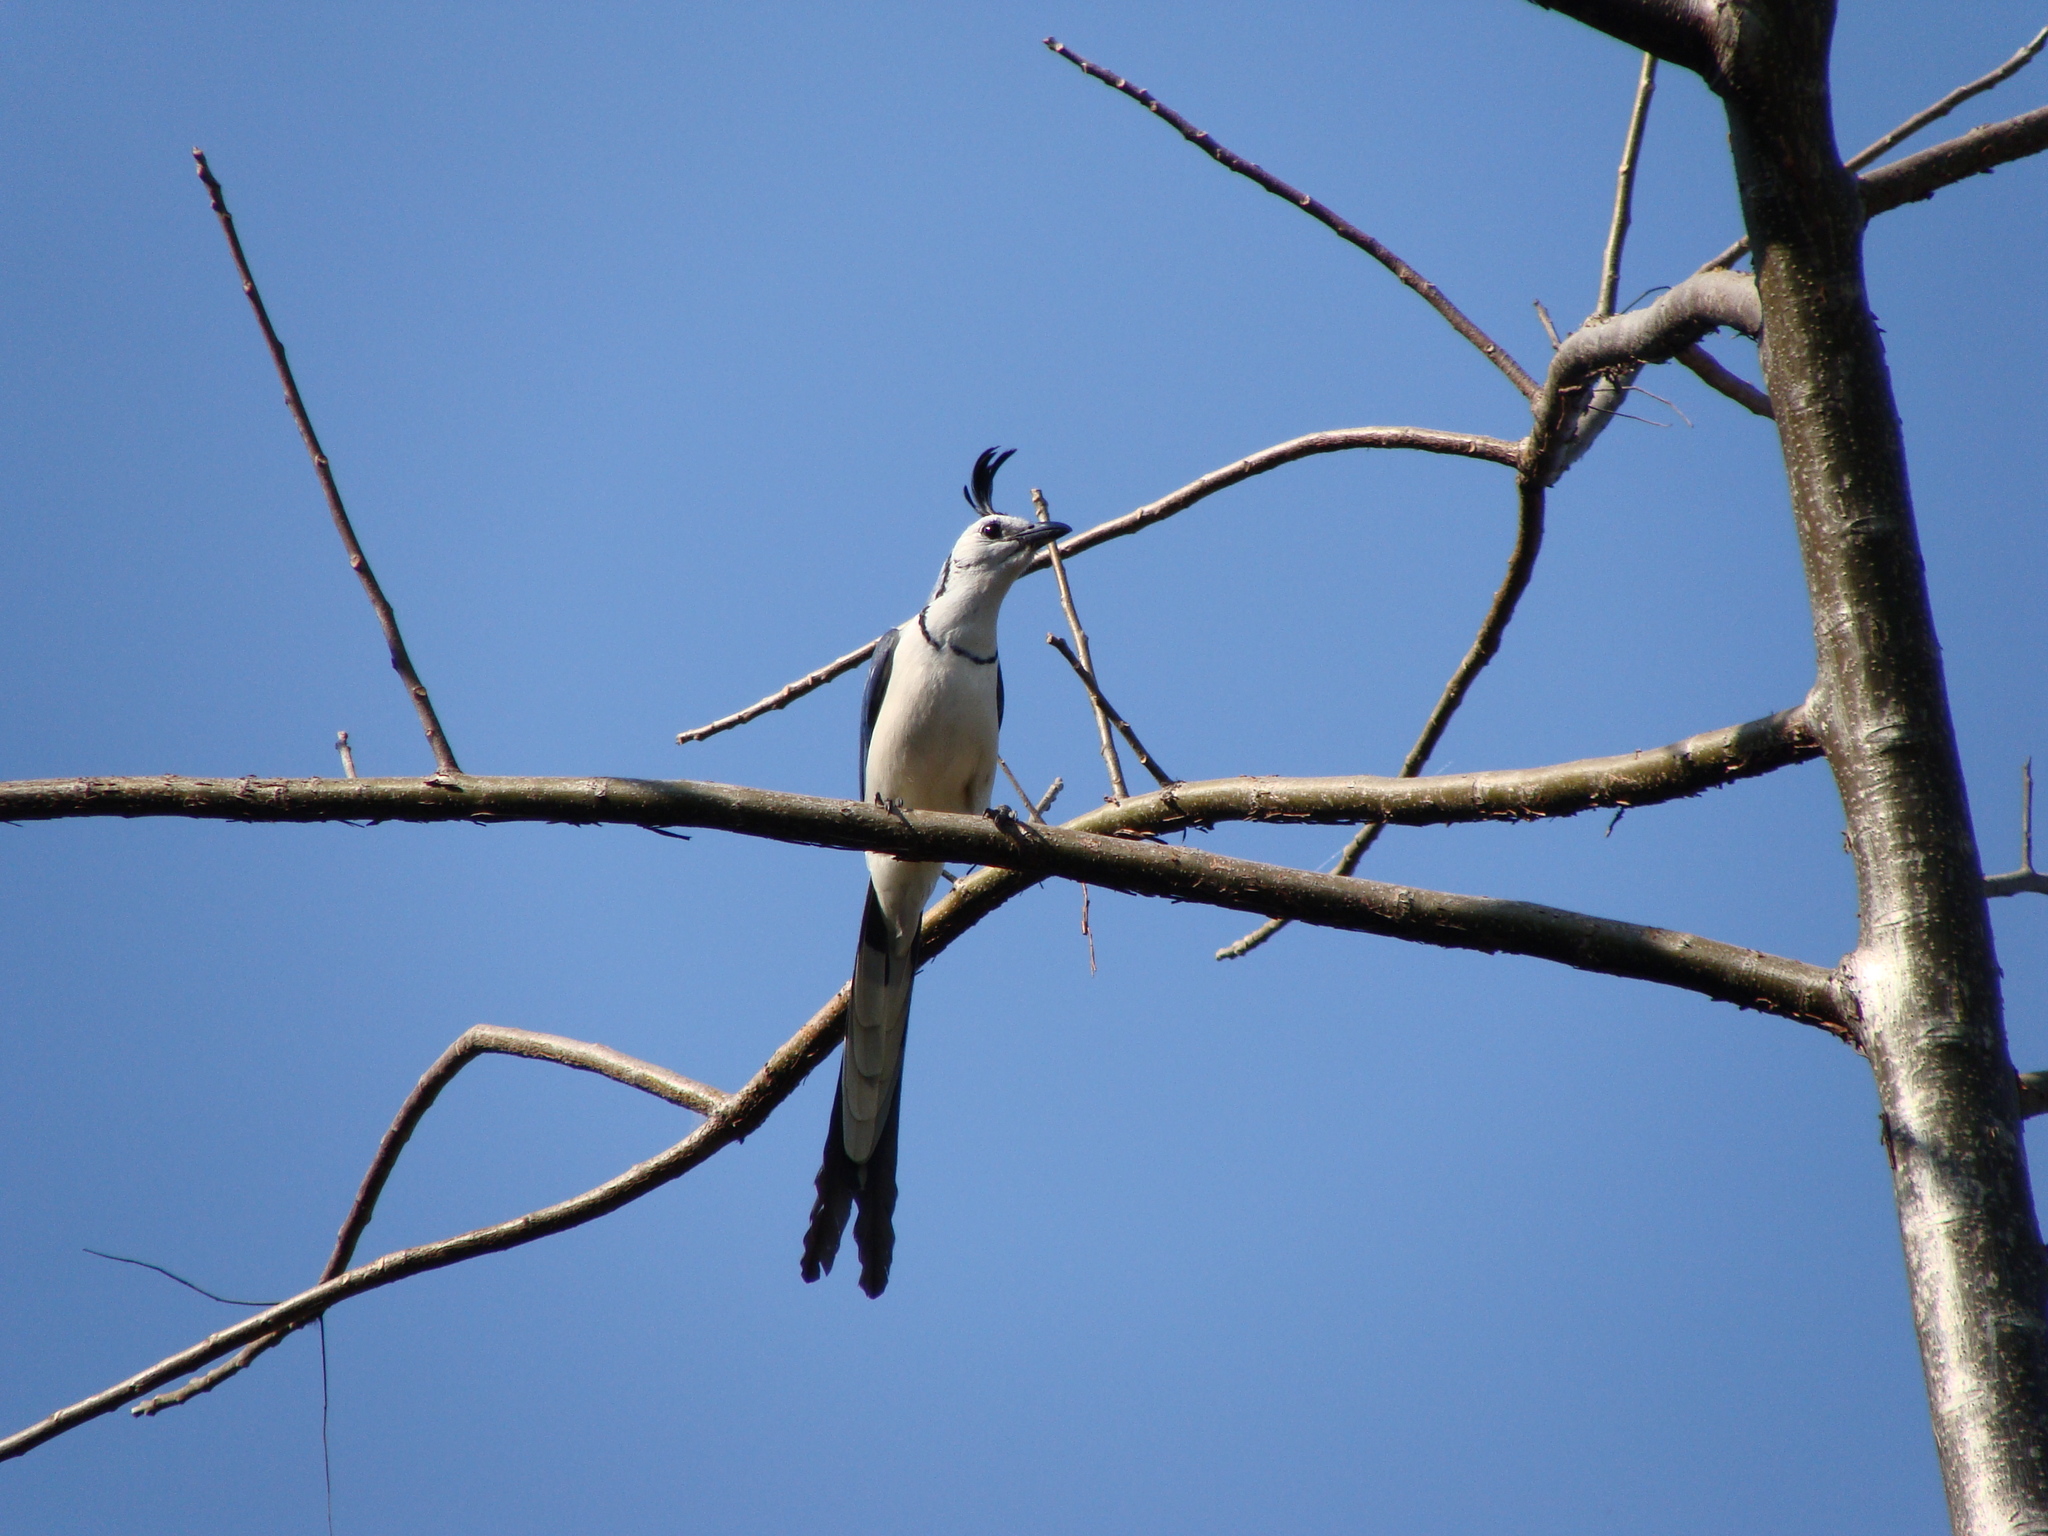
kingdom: Animalia
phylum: Chordata
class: Aves
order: Passeriformes
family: Corvidae
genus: Calocitta
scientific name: Calocitta formosa
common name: White-throated magpie-jay
